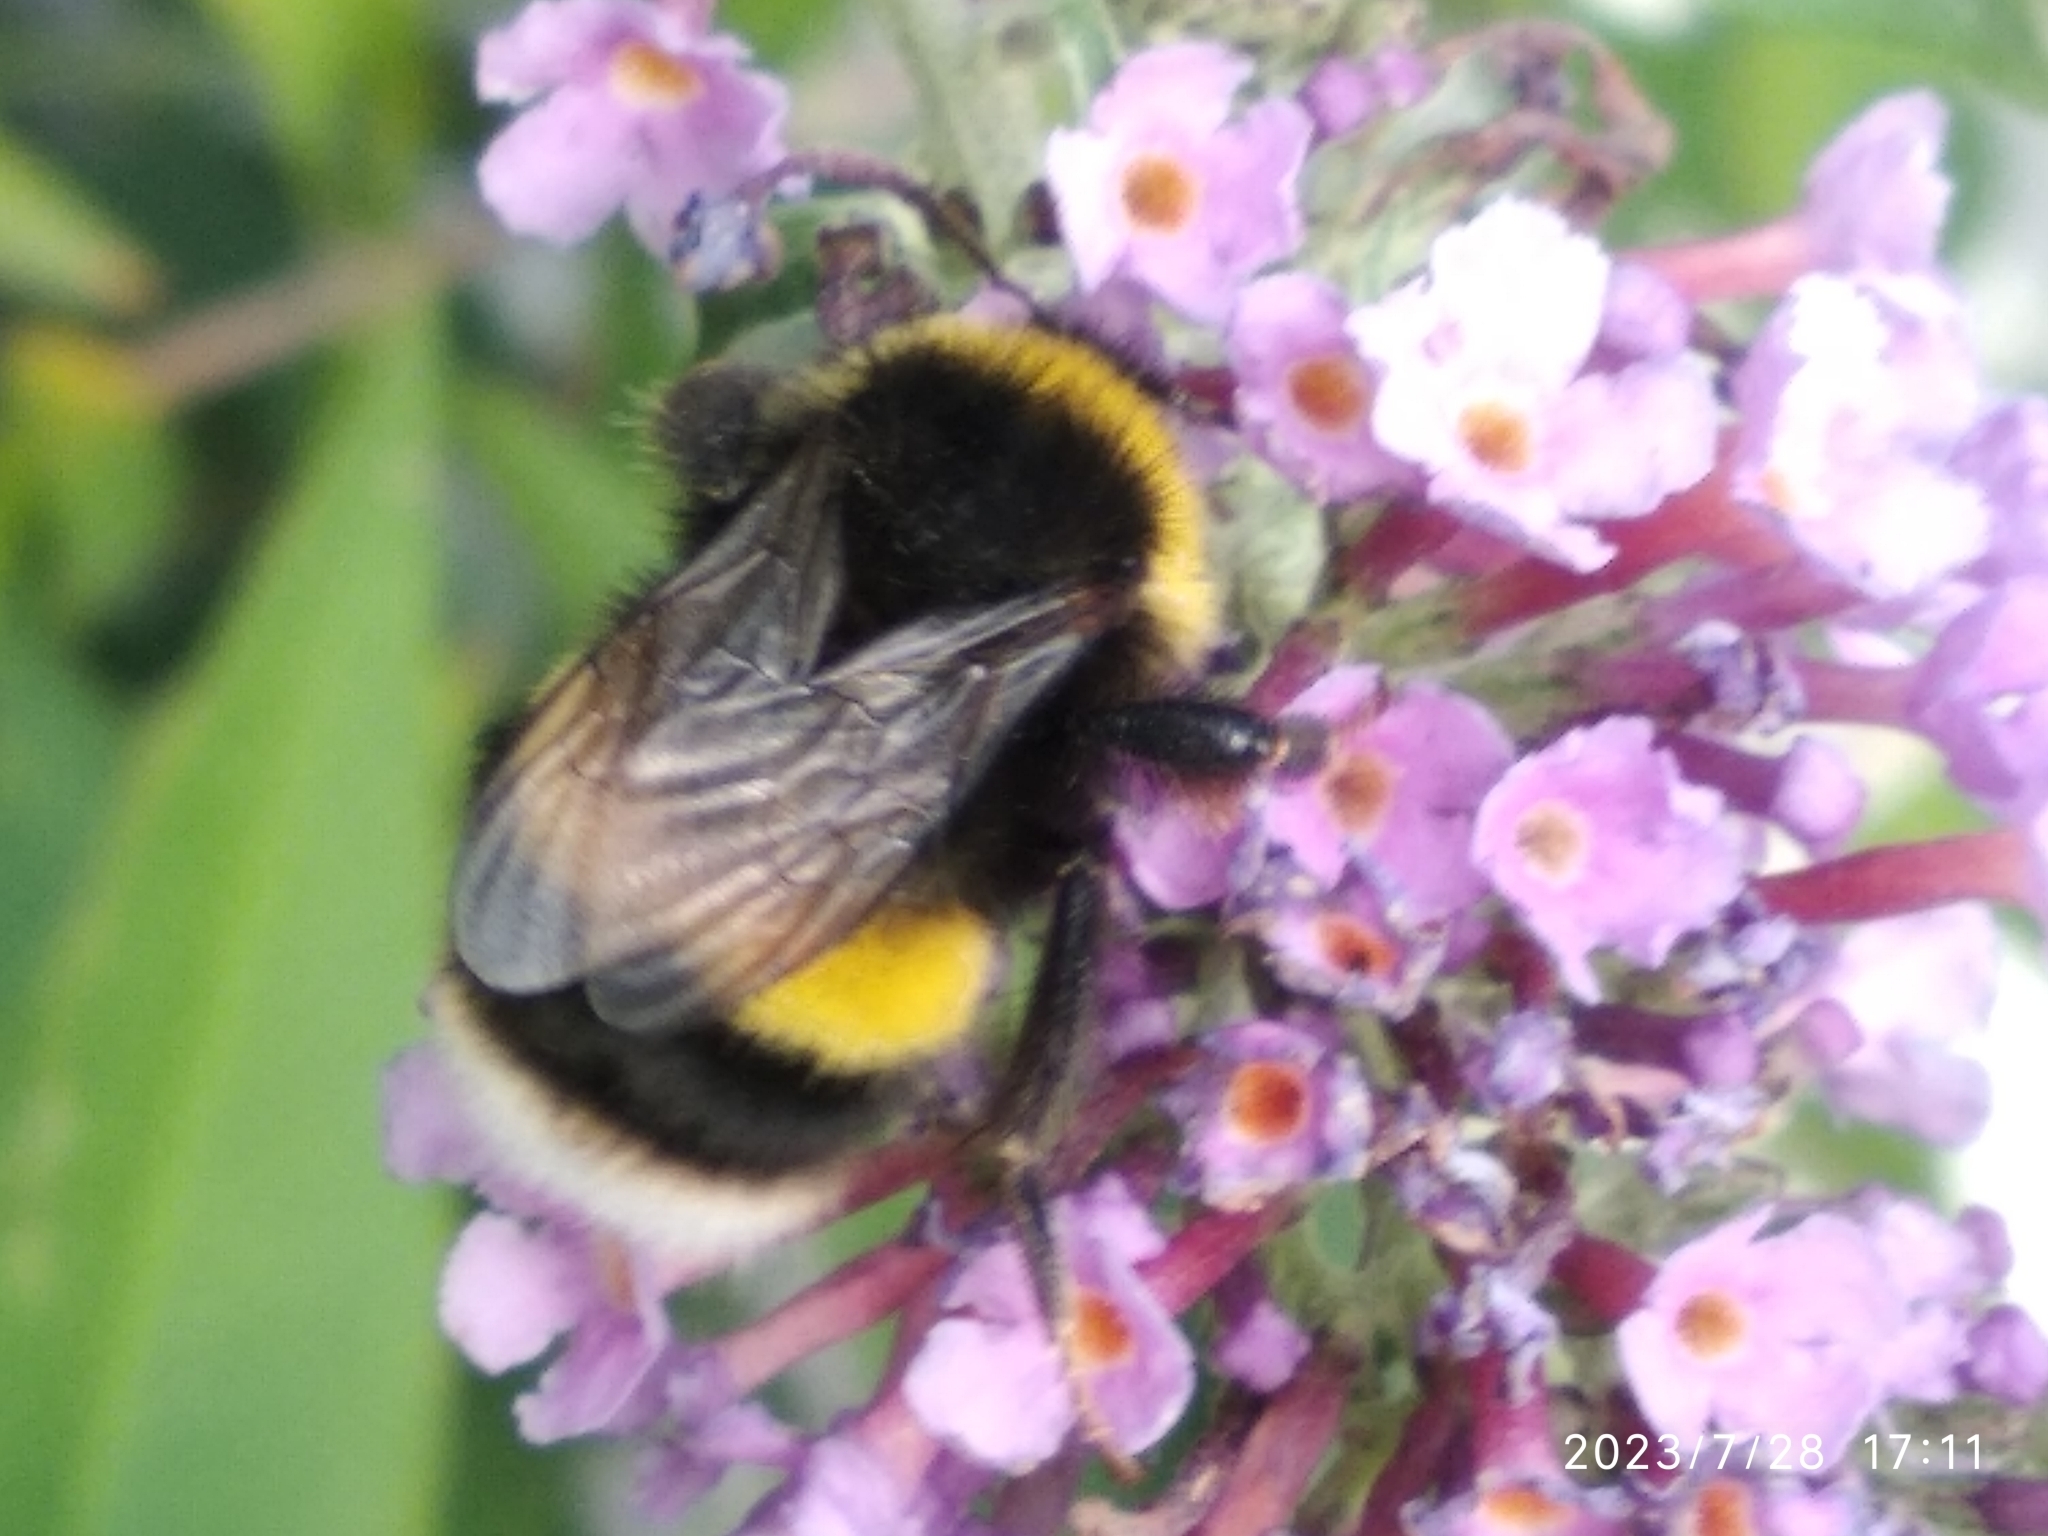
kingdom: Animalia
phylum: Arthropoda
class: Insecta
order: Hymenoptera
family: Apidae
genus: Bombus
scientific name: Bombus terrestris
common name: Buff-tailed bumblebee
